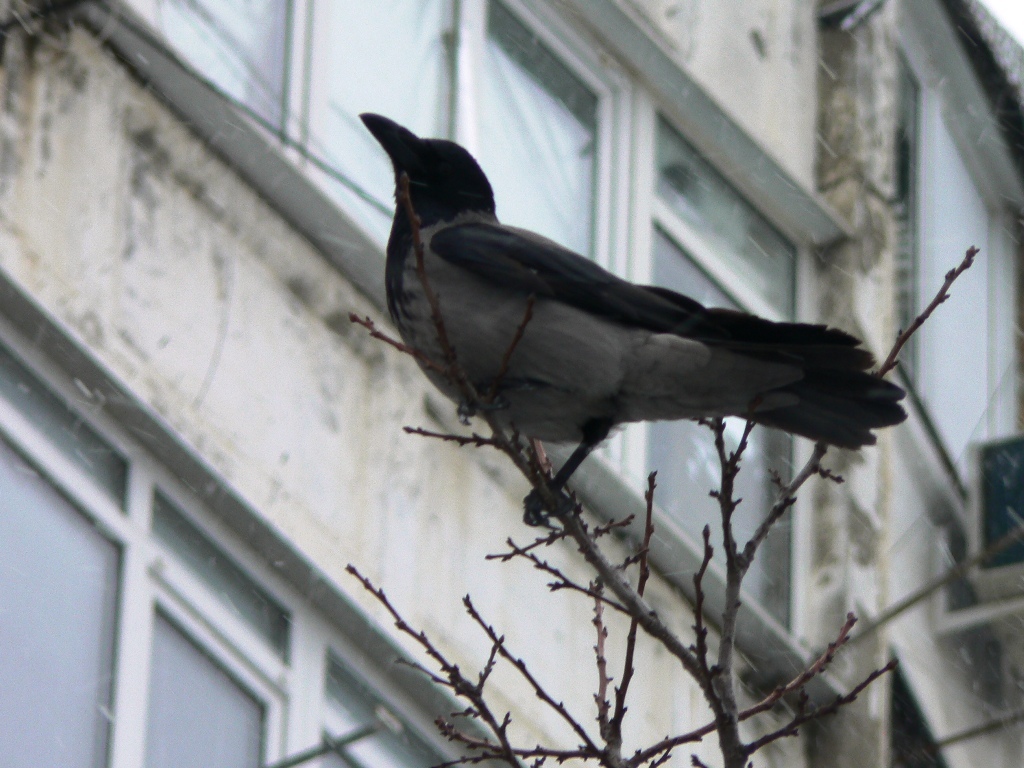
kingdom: Animalia
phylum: Chordata
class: Aves
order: Passeriformes
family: Corvidae
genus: Corvus
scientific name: Corvus cornix
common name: Hooded crow
